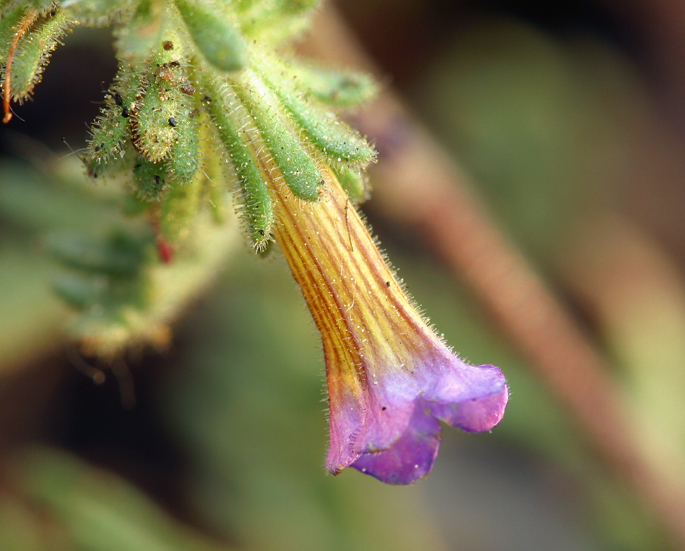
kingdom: Plantae
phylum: Tracheophyta
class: Magnoliopsida
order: Boraginales
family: Hydrophyllaceae
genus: Phacelia
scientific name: Phacelia bicolor
